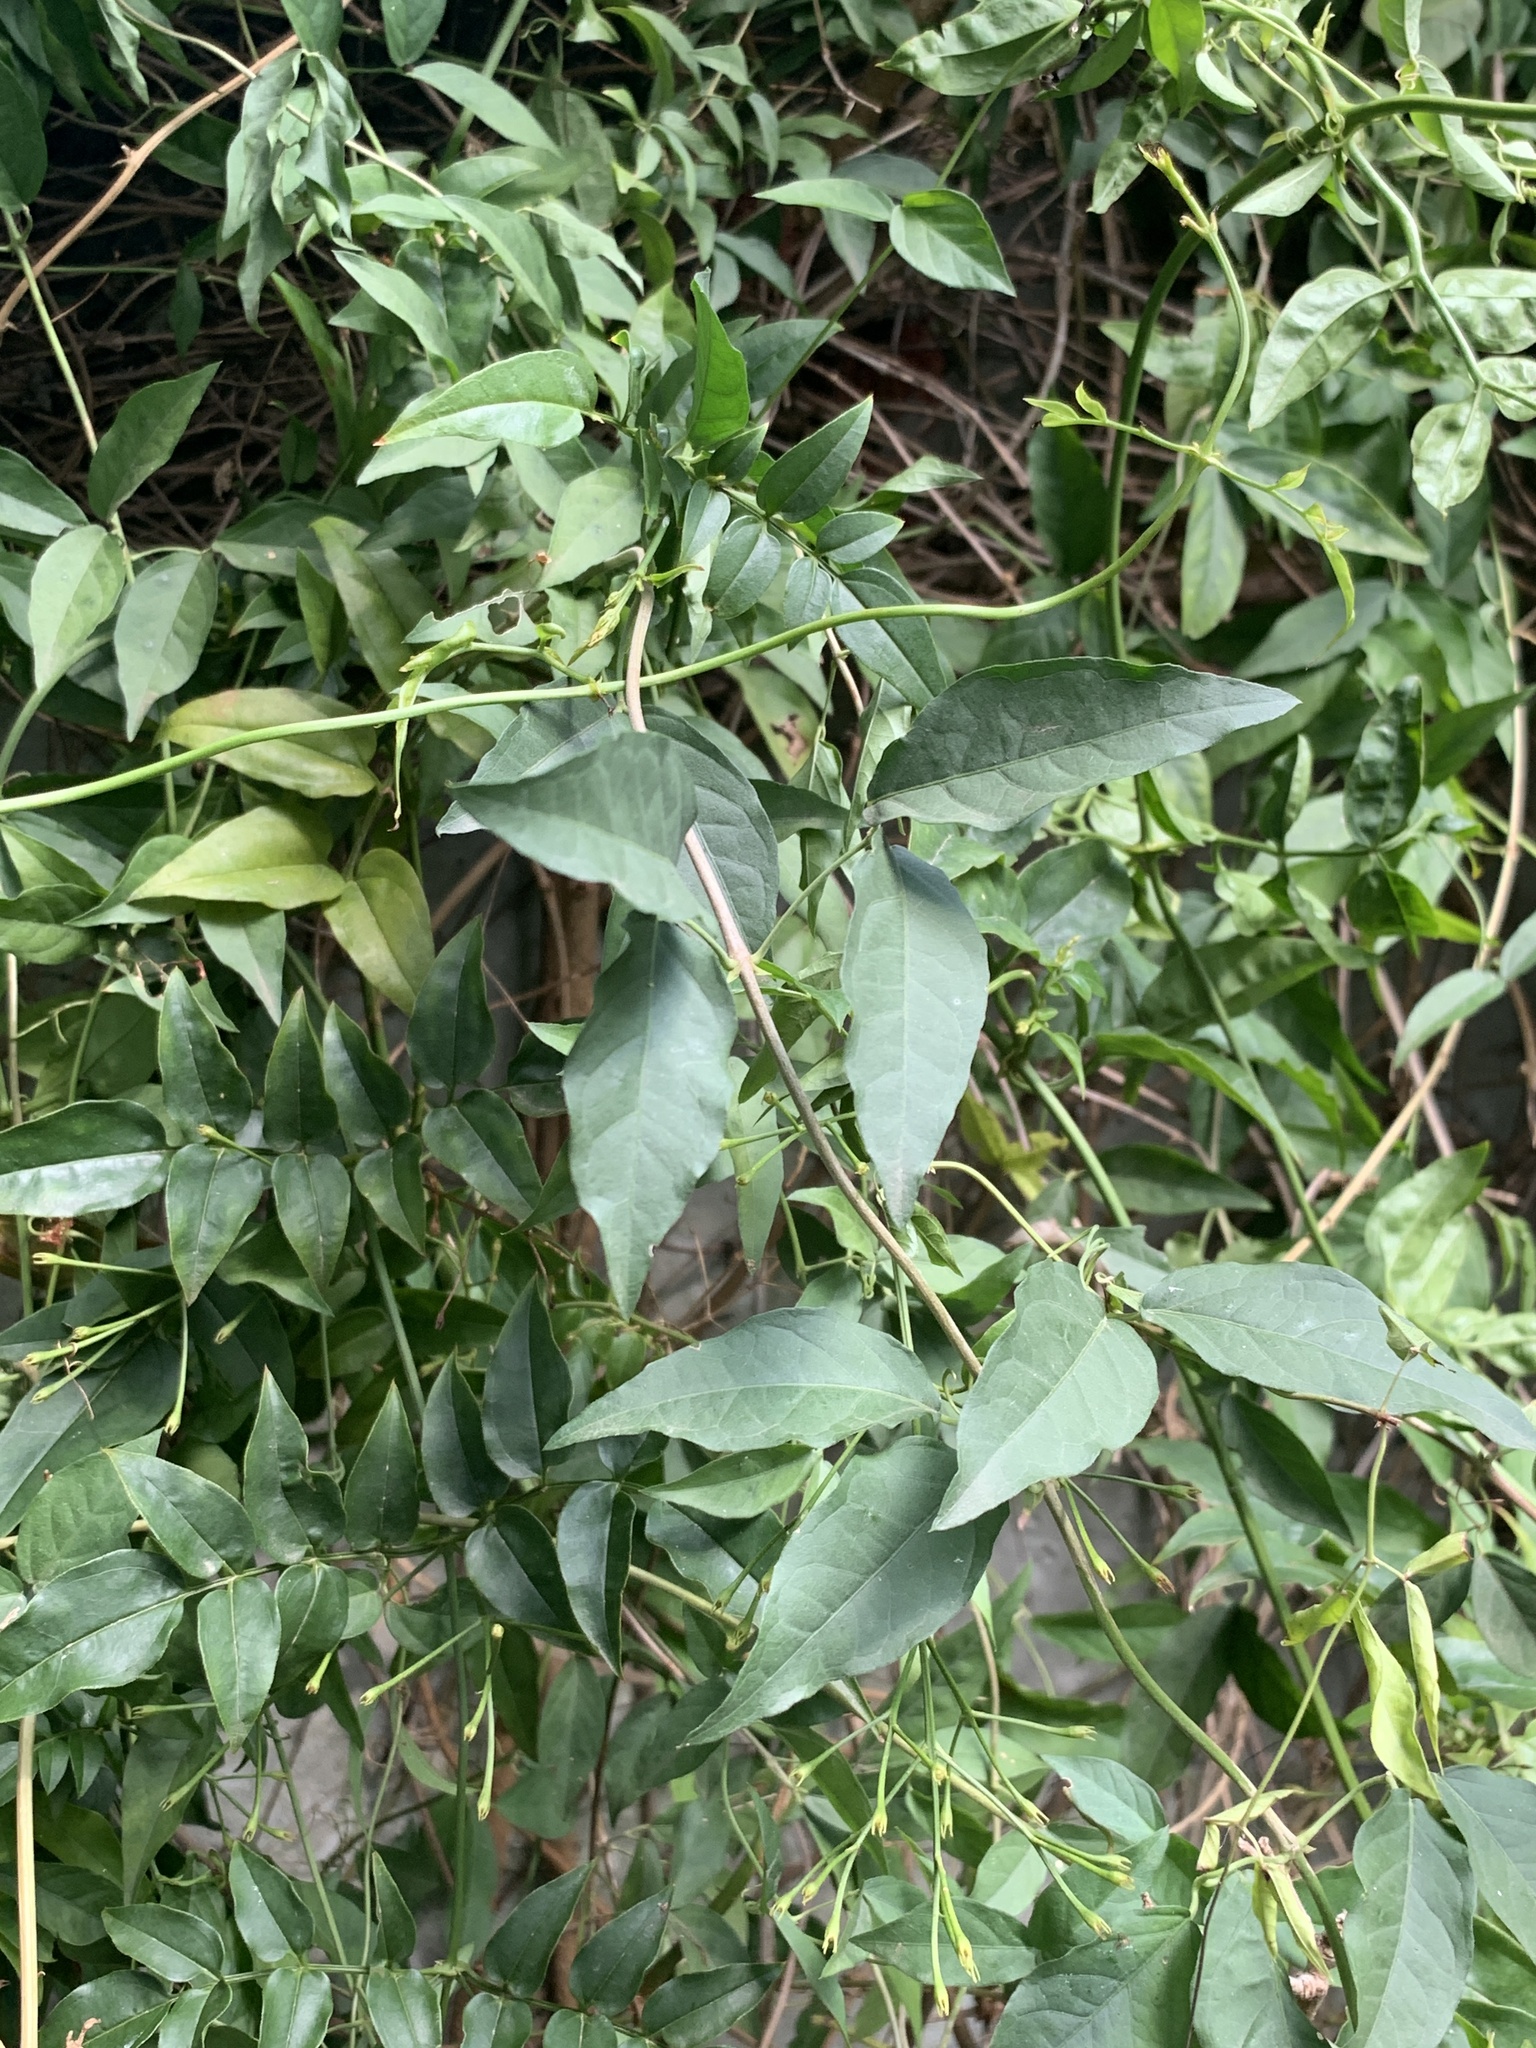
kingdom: Plantae
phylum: Tracheophyta
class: Magnoliopsida
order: Lamiales
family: Bignoniaceae
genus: Dolichandra
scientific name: Dolichandra unguis-cati
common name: Catclaw vine
